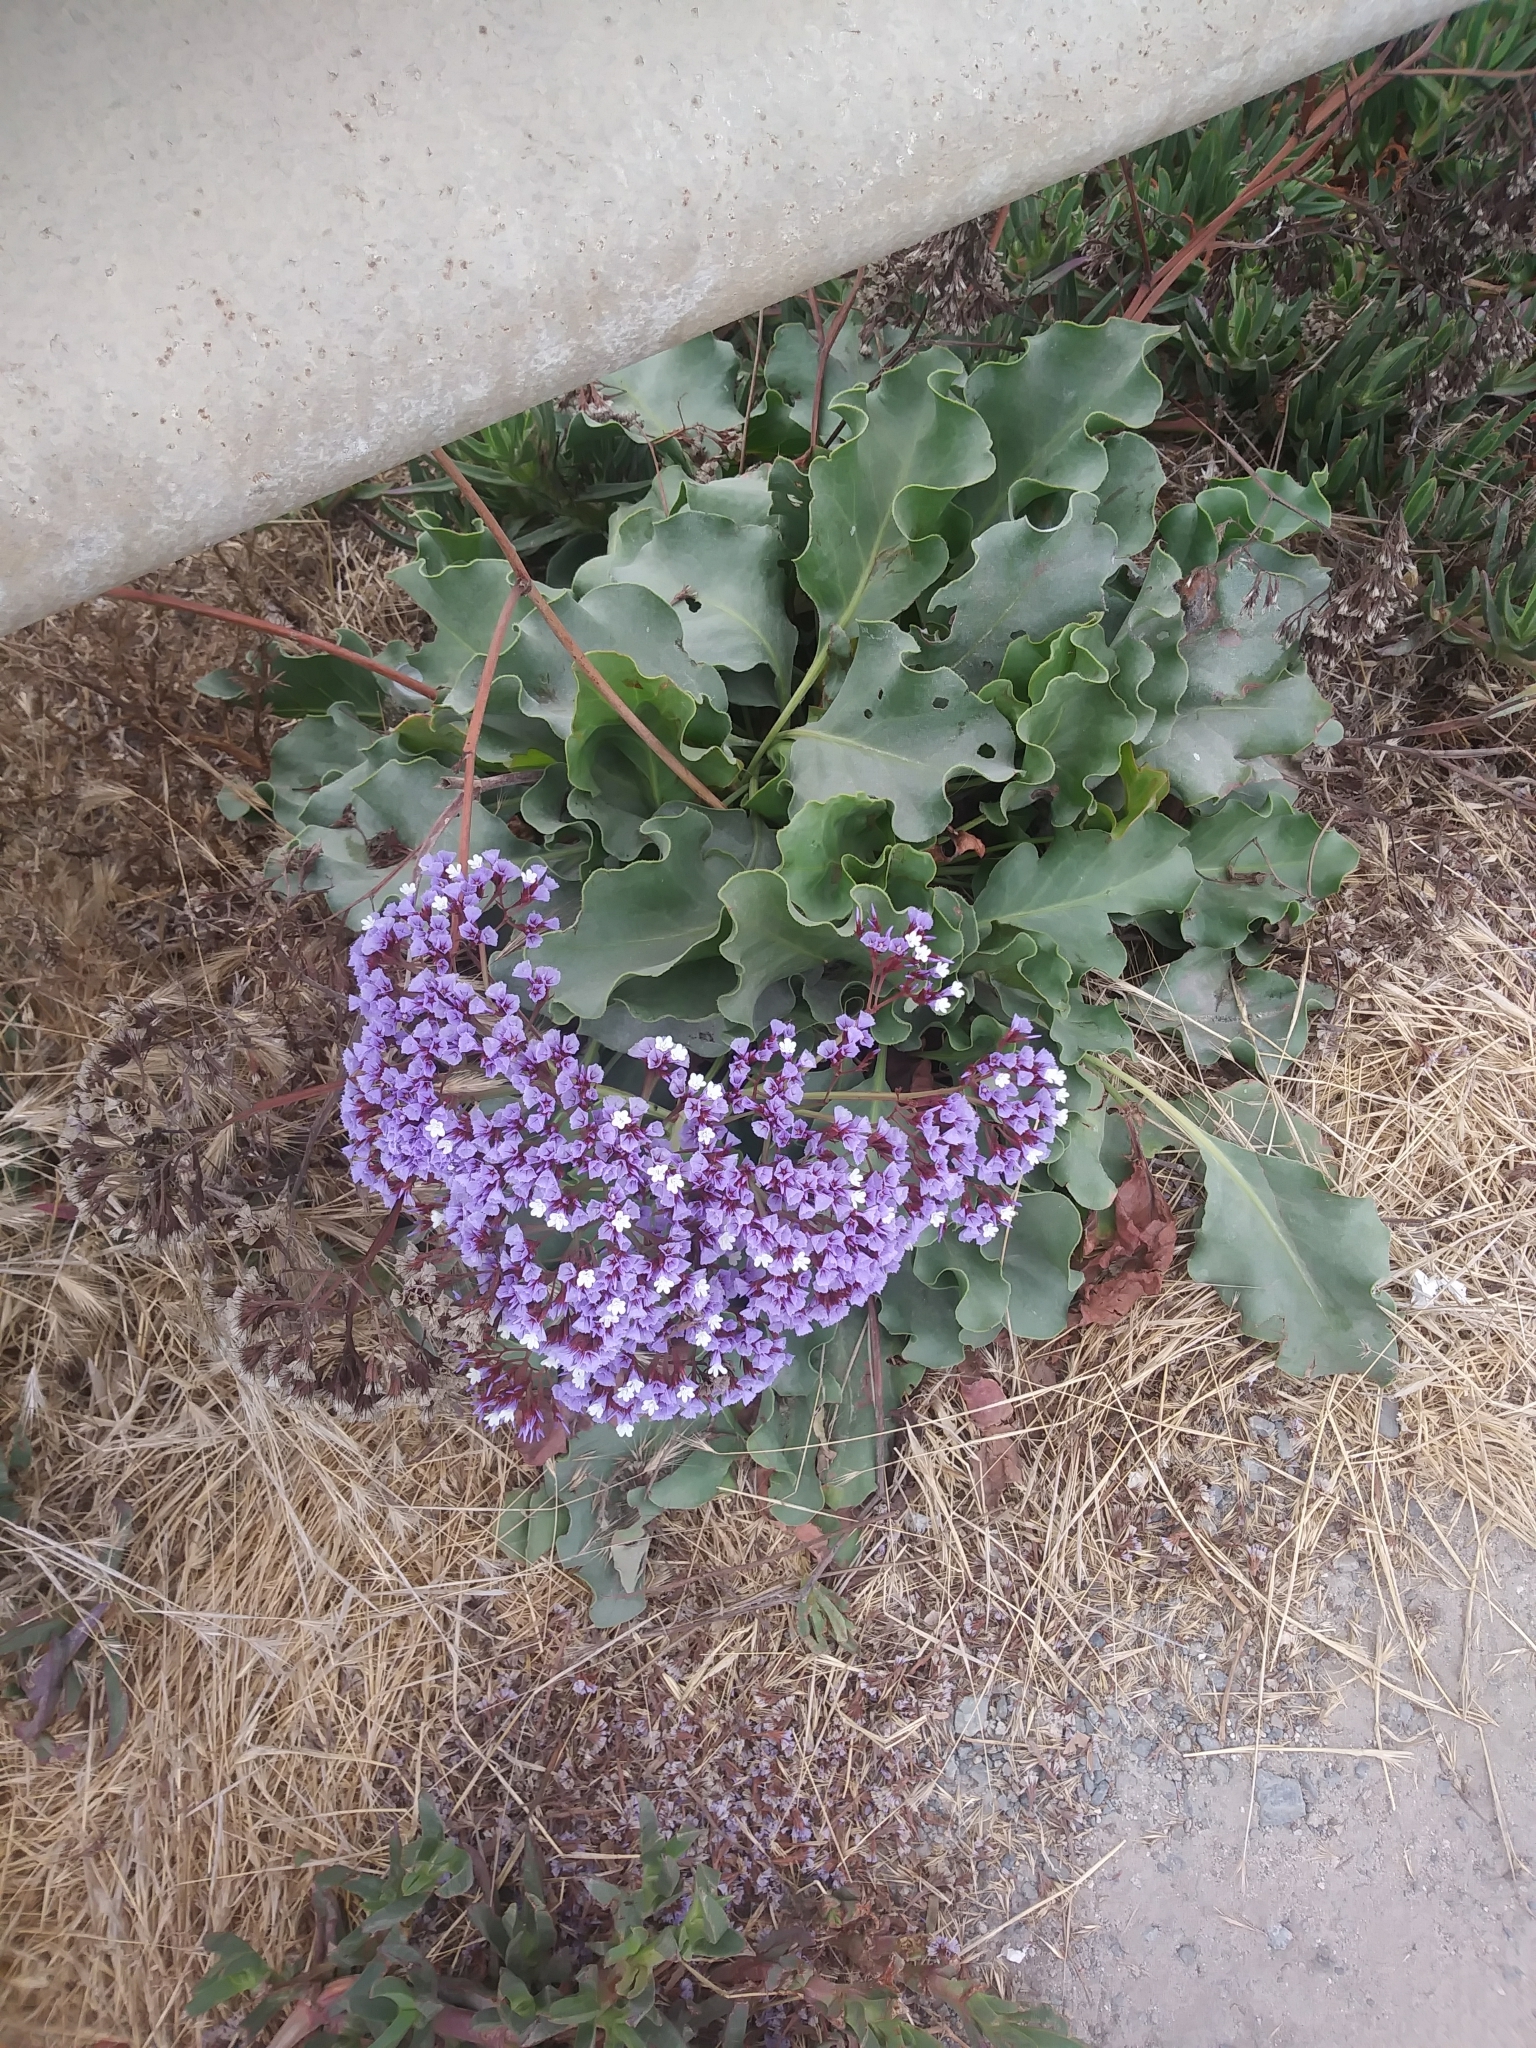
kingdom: Plantae
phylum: Tracheophyta
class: Magnoliopsida
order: Caryophyllales
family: Plumbaginaceae
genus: Limonium
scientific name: Limonium perezii
